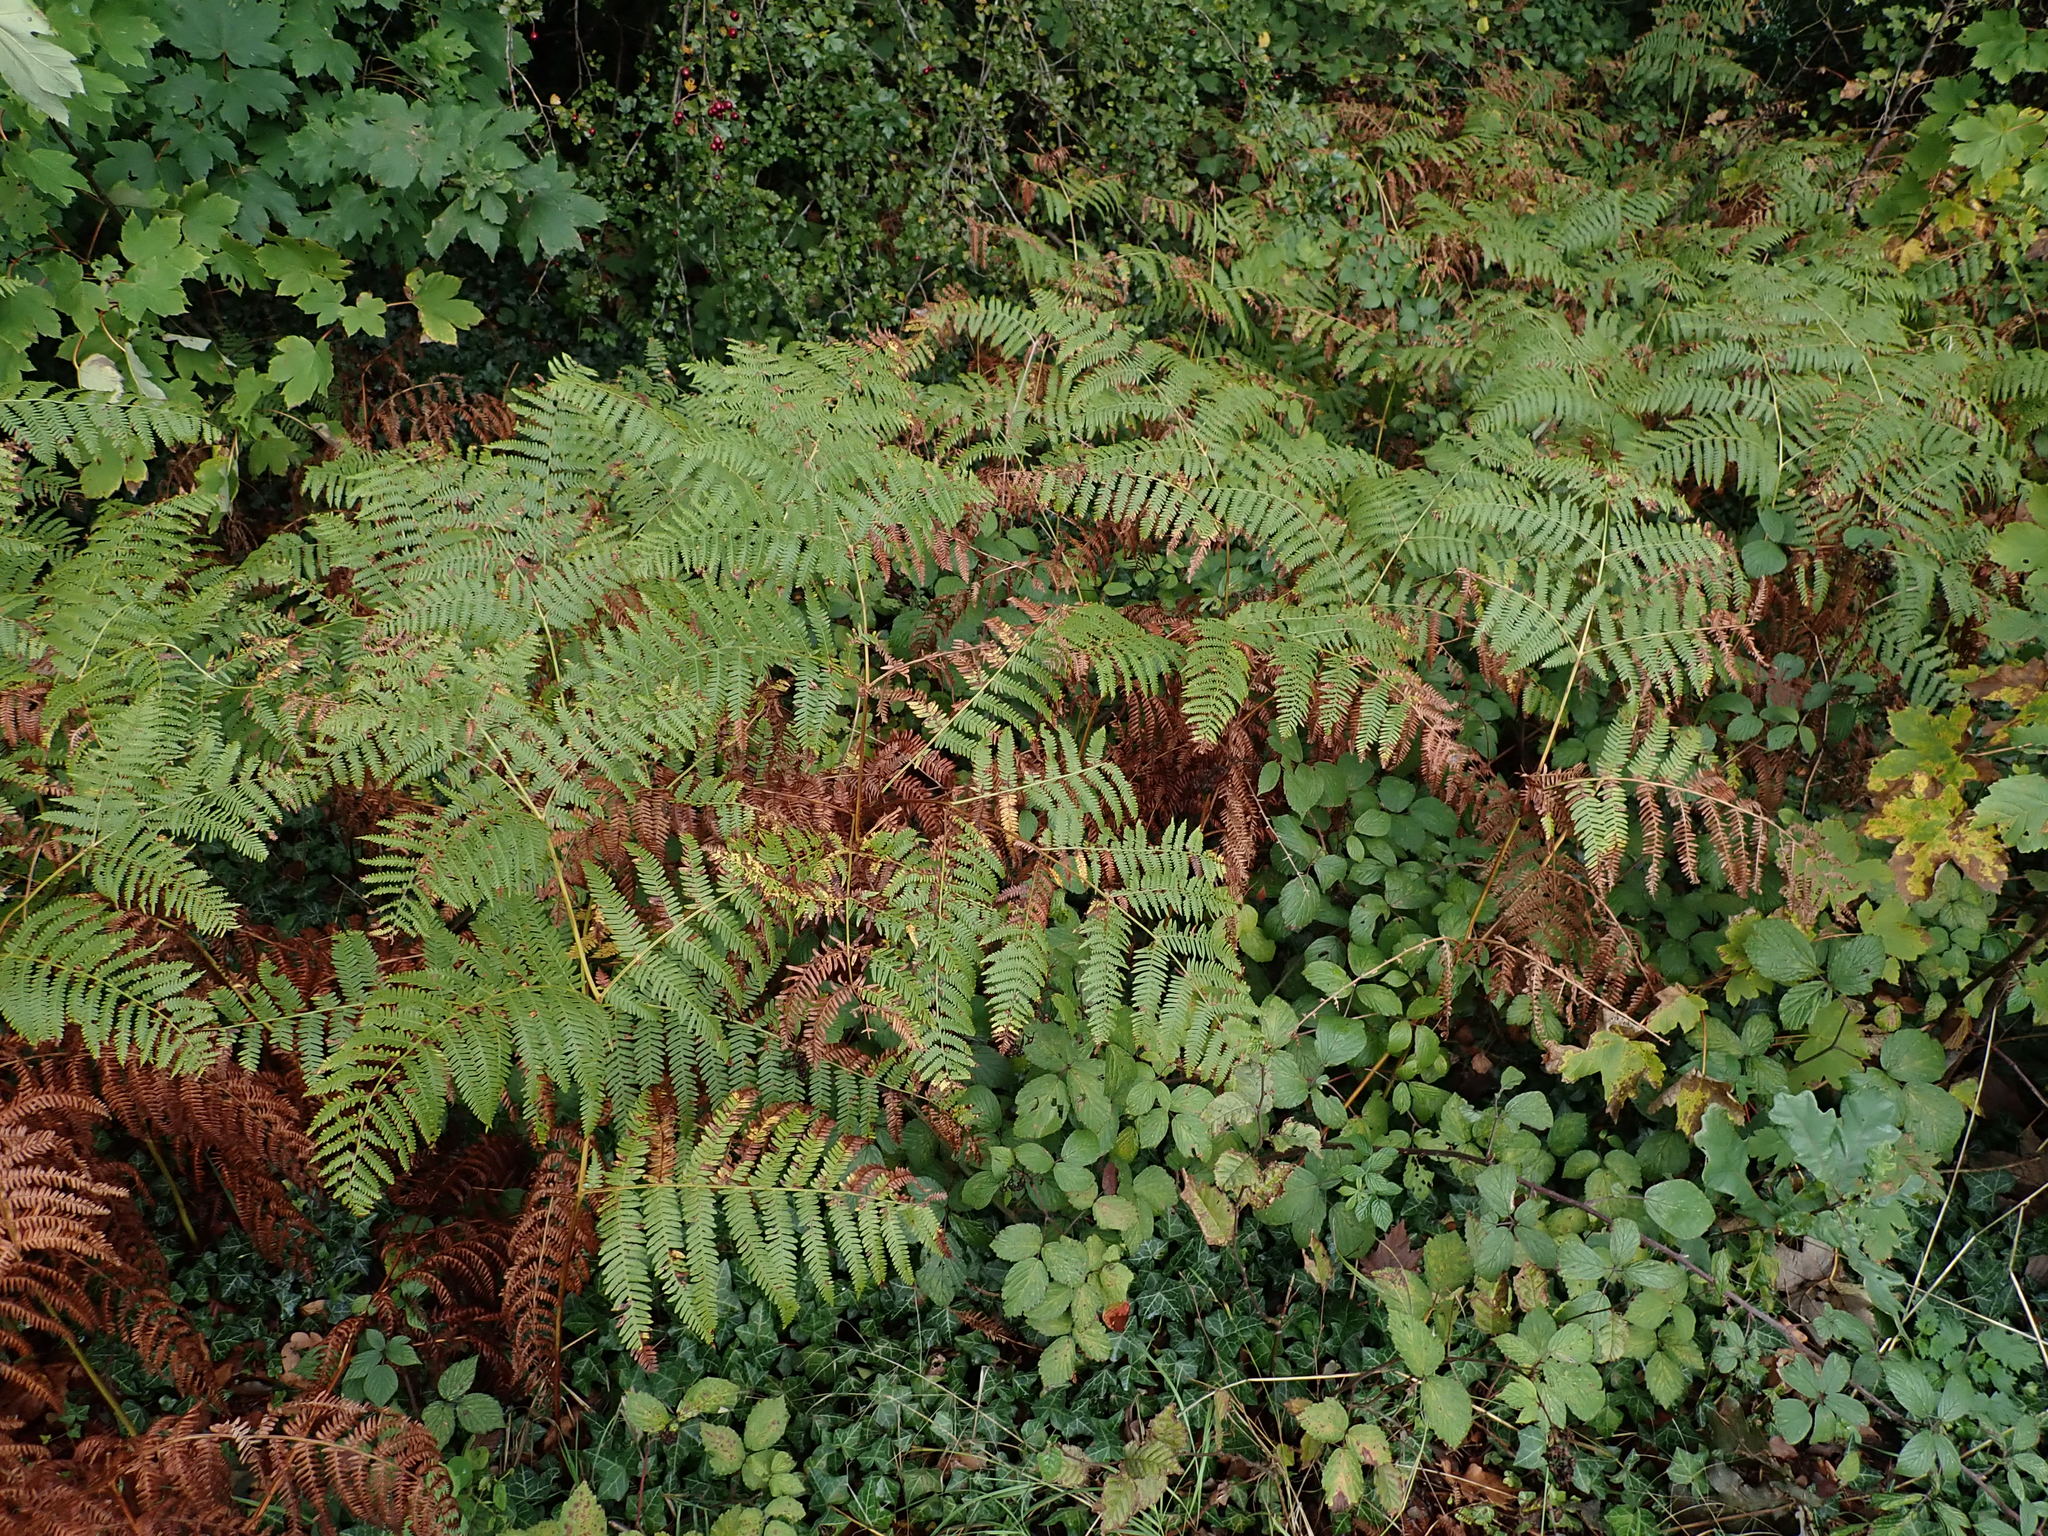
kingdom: Plantae
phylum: Tracheophyta
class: Polypodiopsida
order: Polypodiales
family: Dennstaedtiaceae
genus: Pteridium
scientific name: Pteridium aquilinum
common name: Bracken
